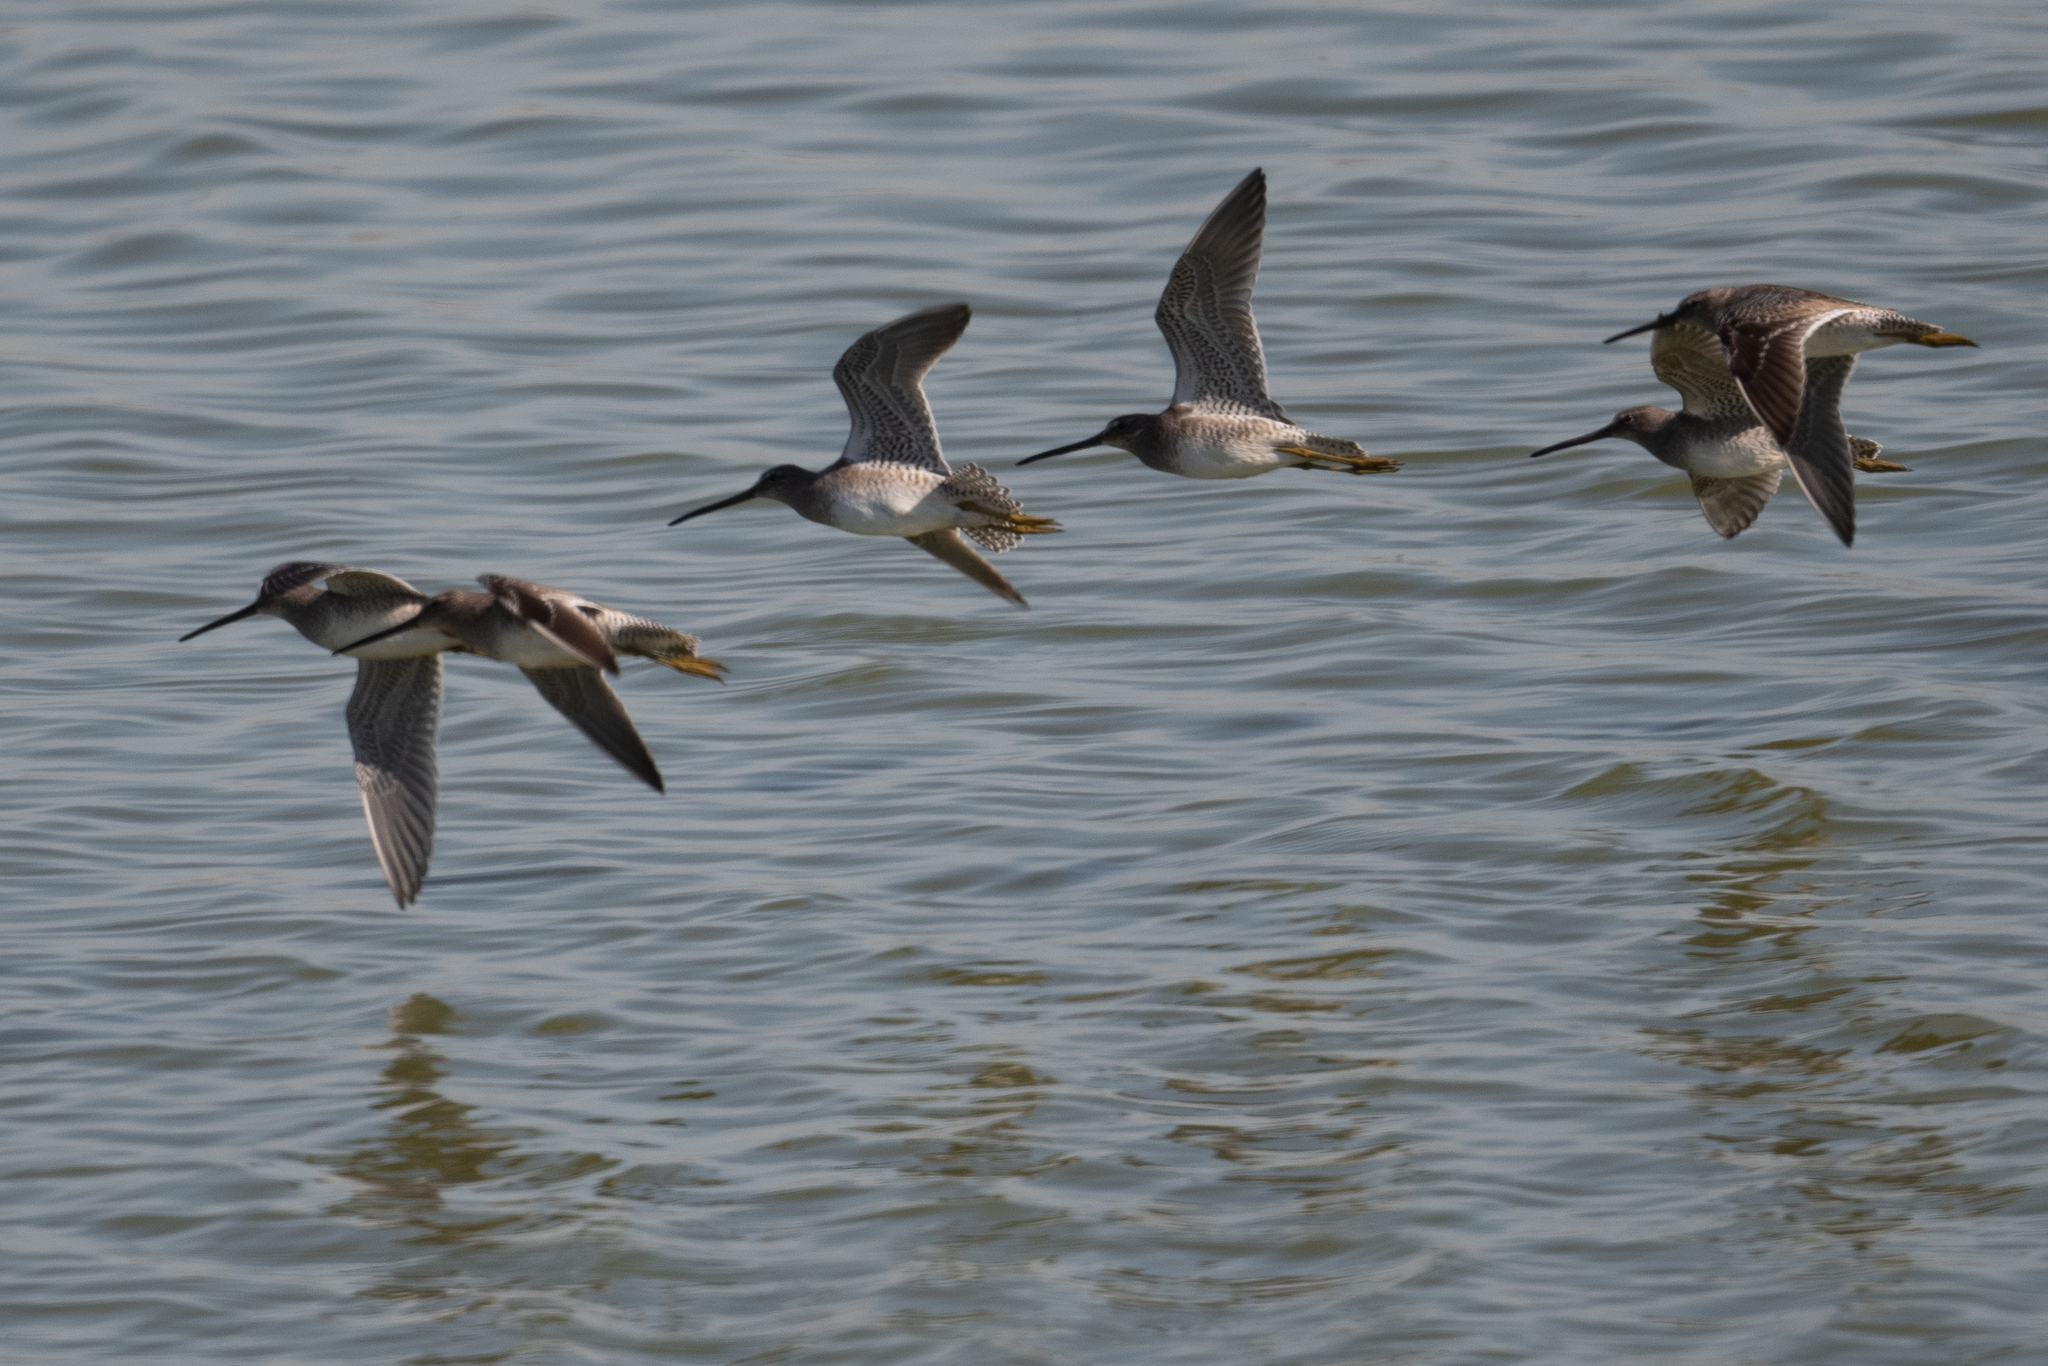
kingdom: Animalia
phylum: Chordata
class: Aves
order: Charadriiformes
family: Scolopacidae
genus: Limnodromus
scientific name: Limnodromus scolopaceus
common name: Long-billed dowitcher
